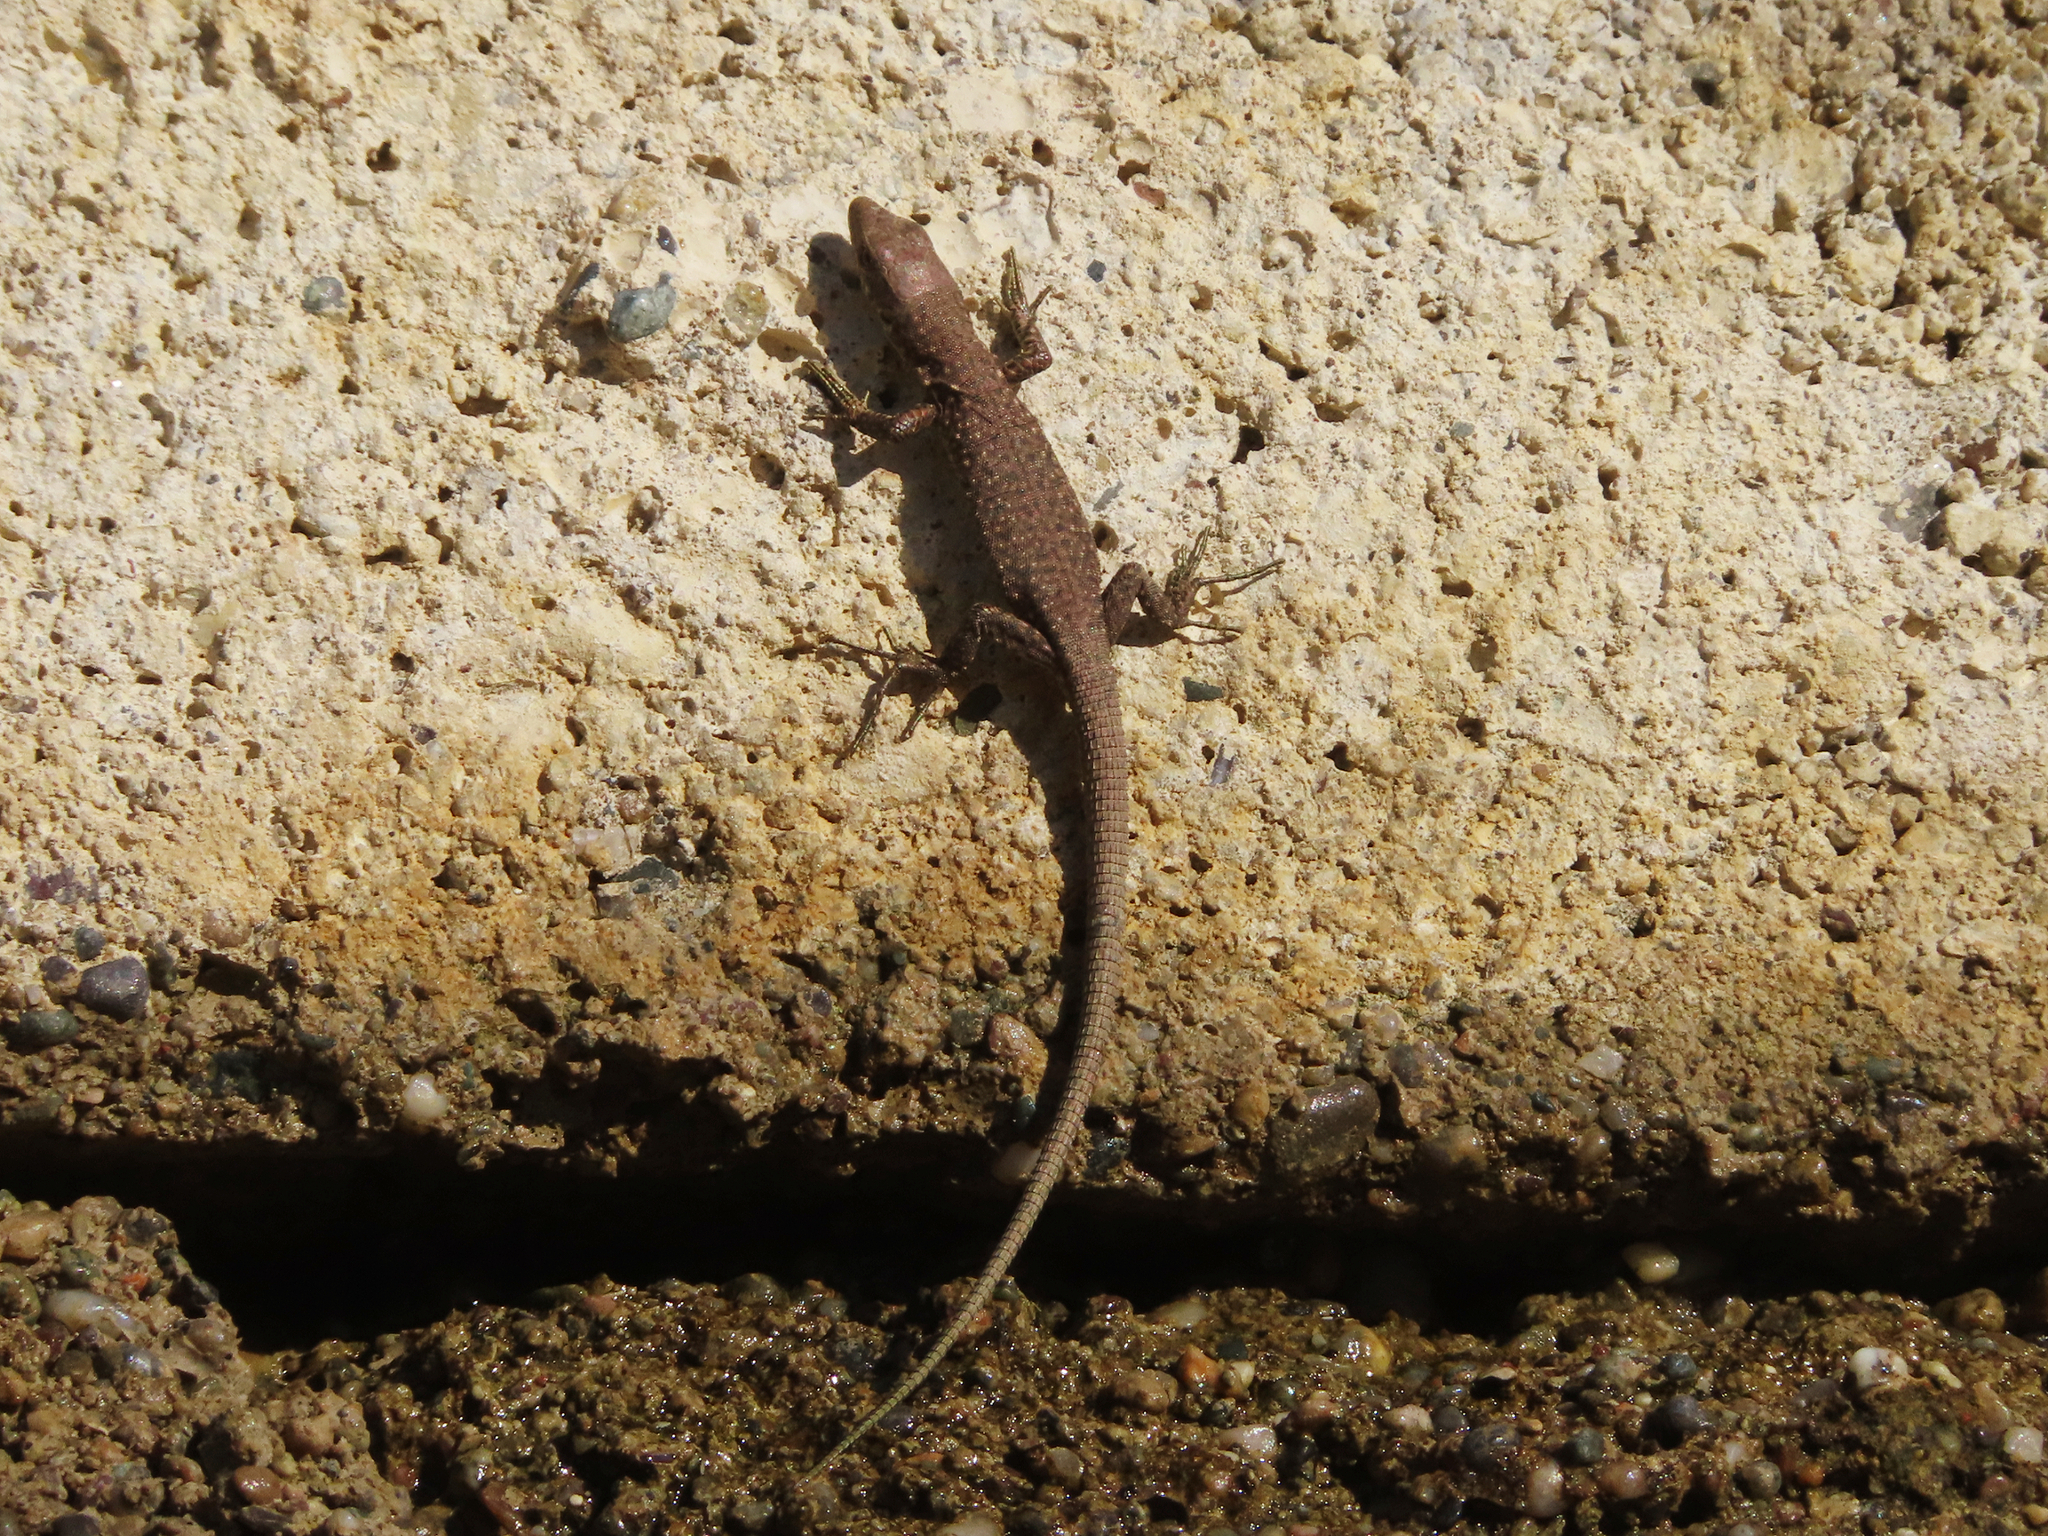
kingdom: Animalia
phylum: Chordata
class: Squamata
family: Lacertidae
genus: Darevskia
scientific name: Darevskia bithynica
